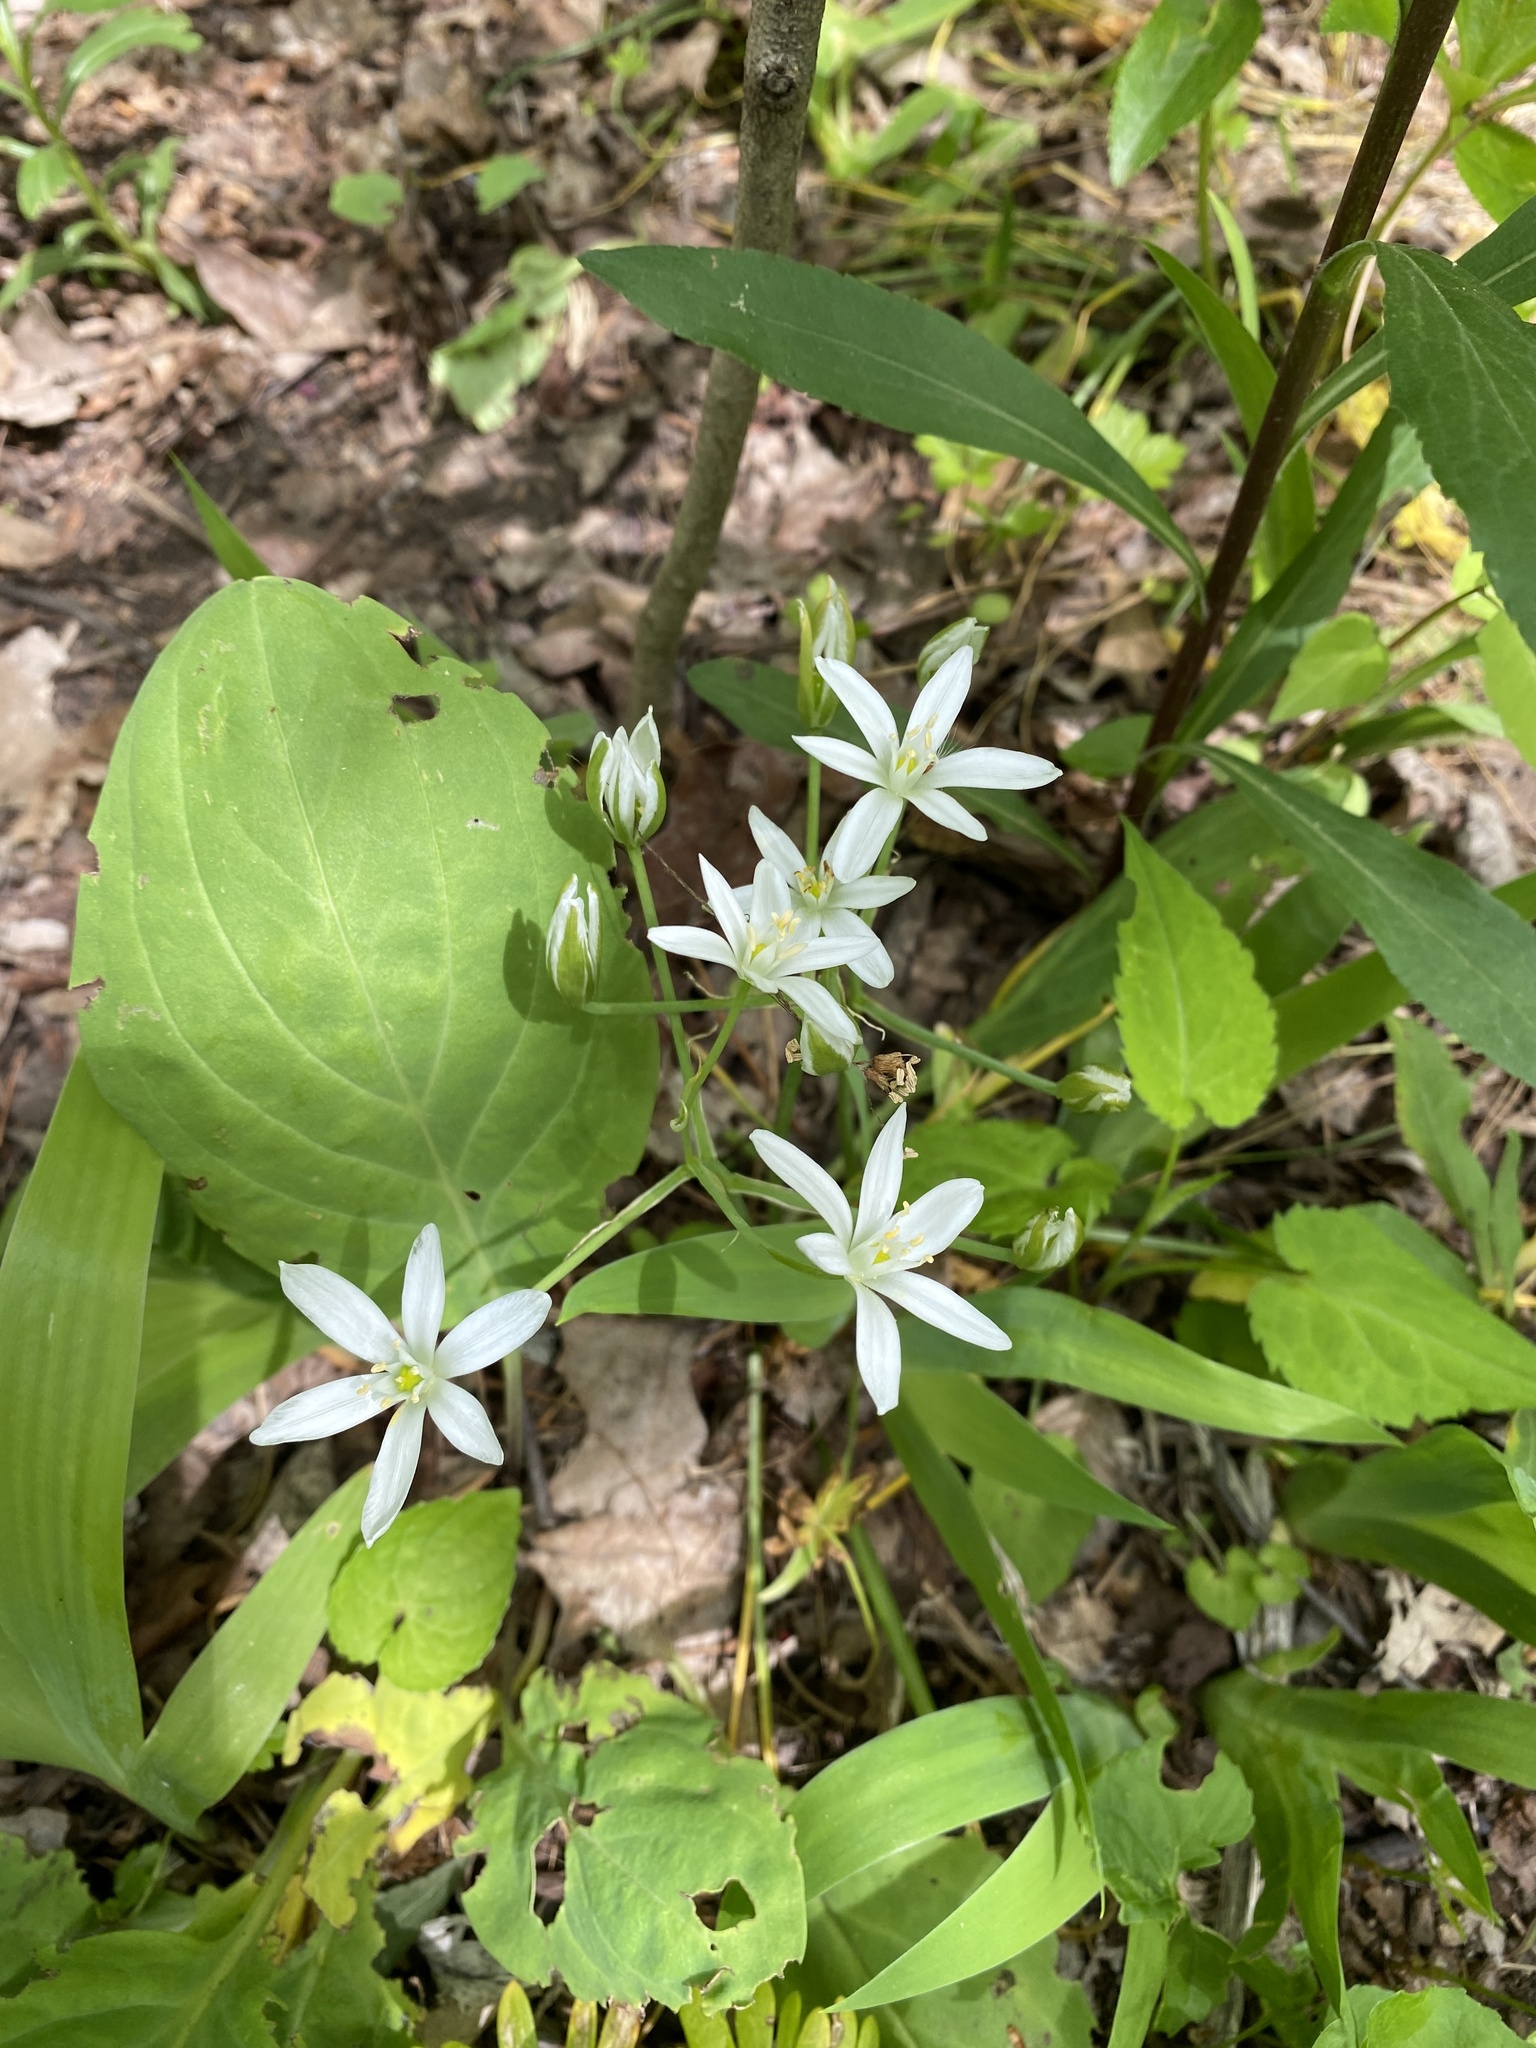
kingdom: Plantae
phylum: Tracheophyta
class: Liliopsida
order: Asparagales
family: Asparagaceae
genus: Ornithogalum
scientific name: Ornithogalum umbellatum
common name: Garden star-of-bethlehem
